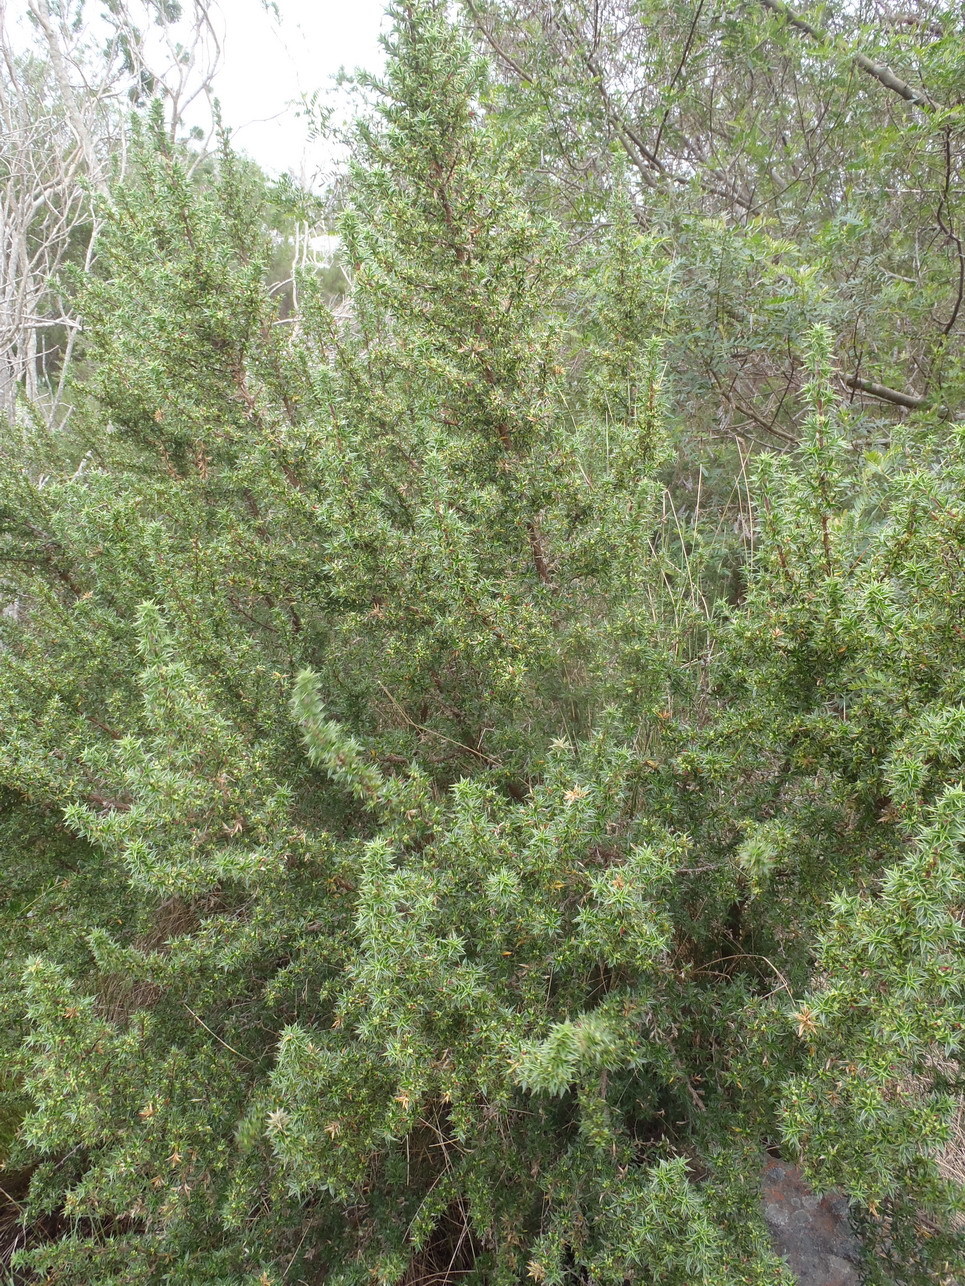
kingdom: Plantae
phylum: Tracheophyta
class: Magnoliopsida
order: Rosales
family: Rosaceae
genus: Cliffortia
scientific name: Cliffortia ruscifolia
